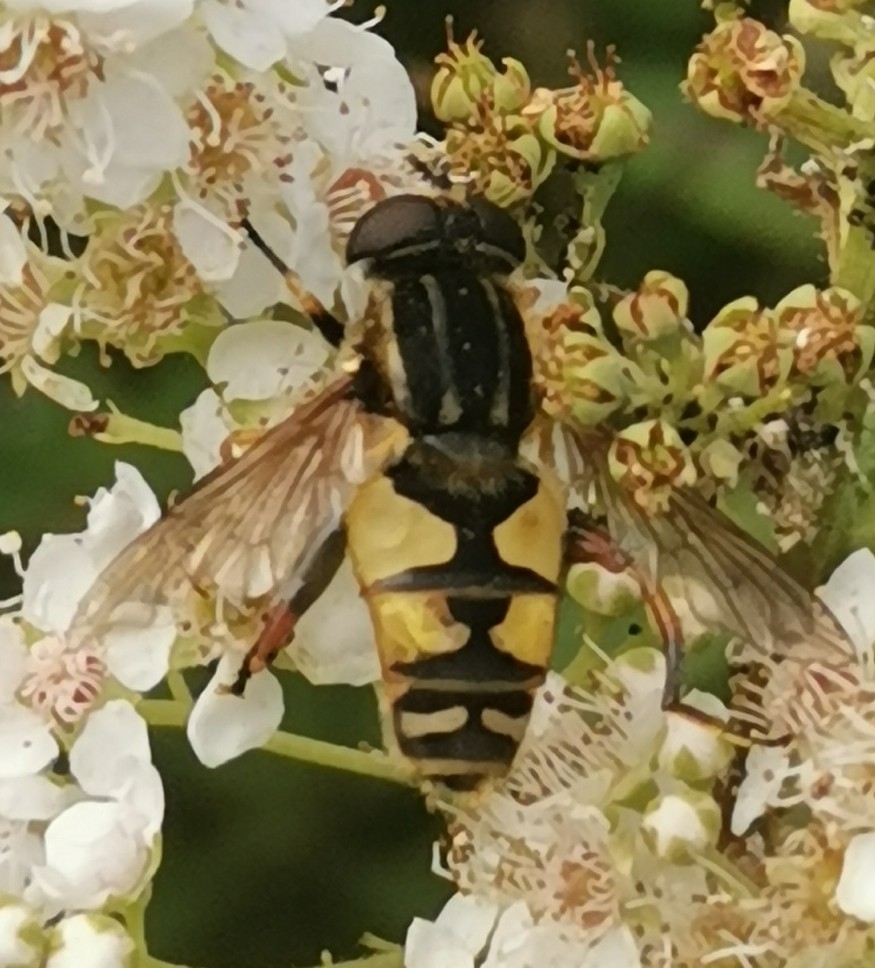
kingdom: Animalia
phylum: Arthropoda
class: Insecta
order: Diptera
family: Syrphidae
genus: Helophilus
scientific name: Helophilus pendulus
